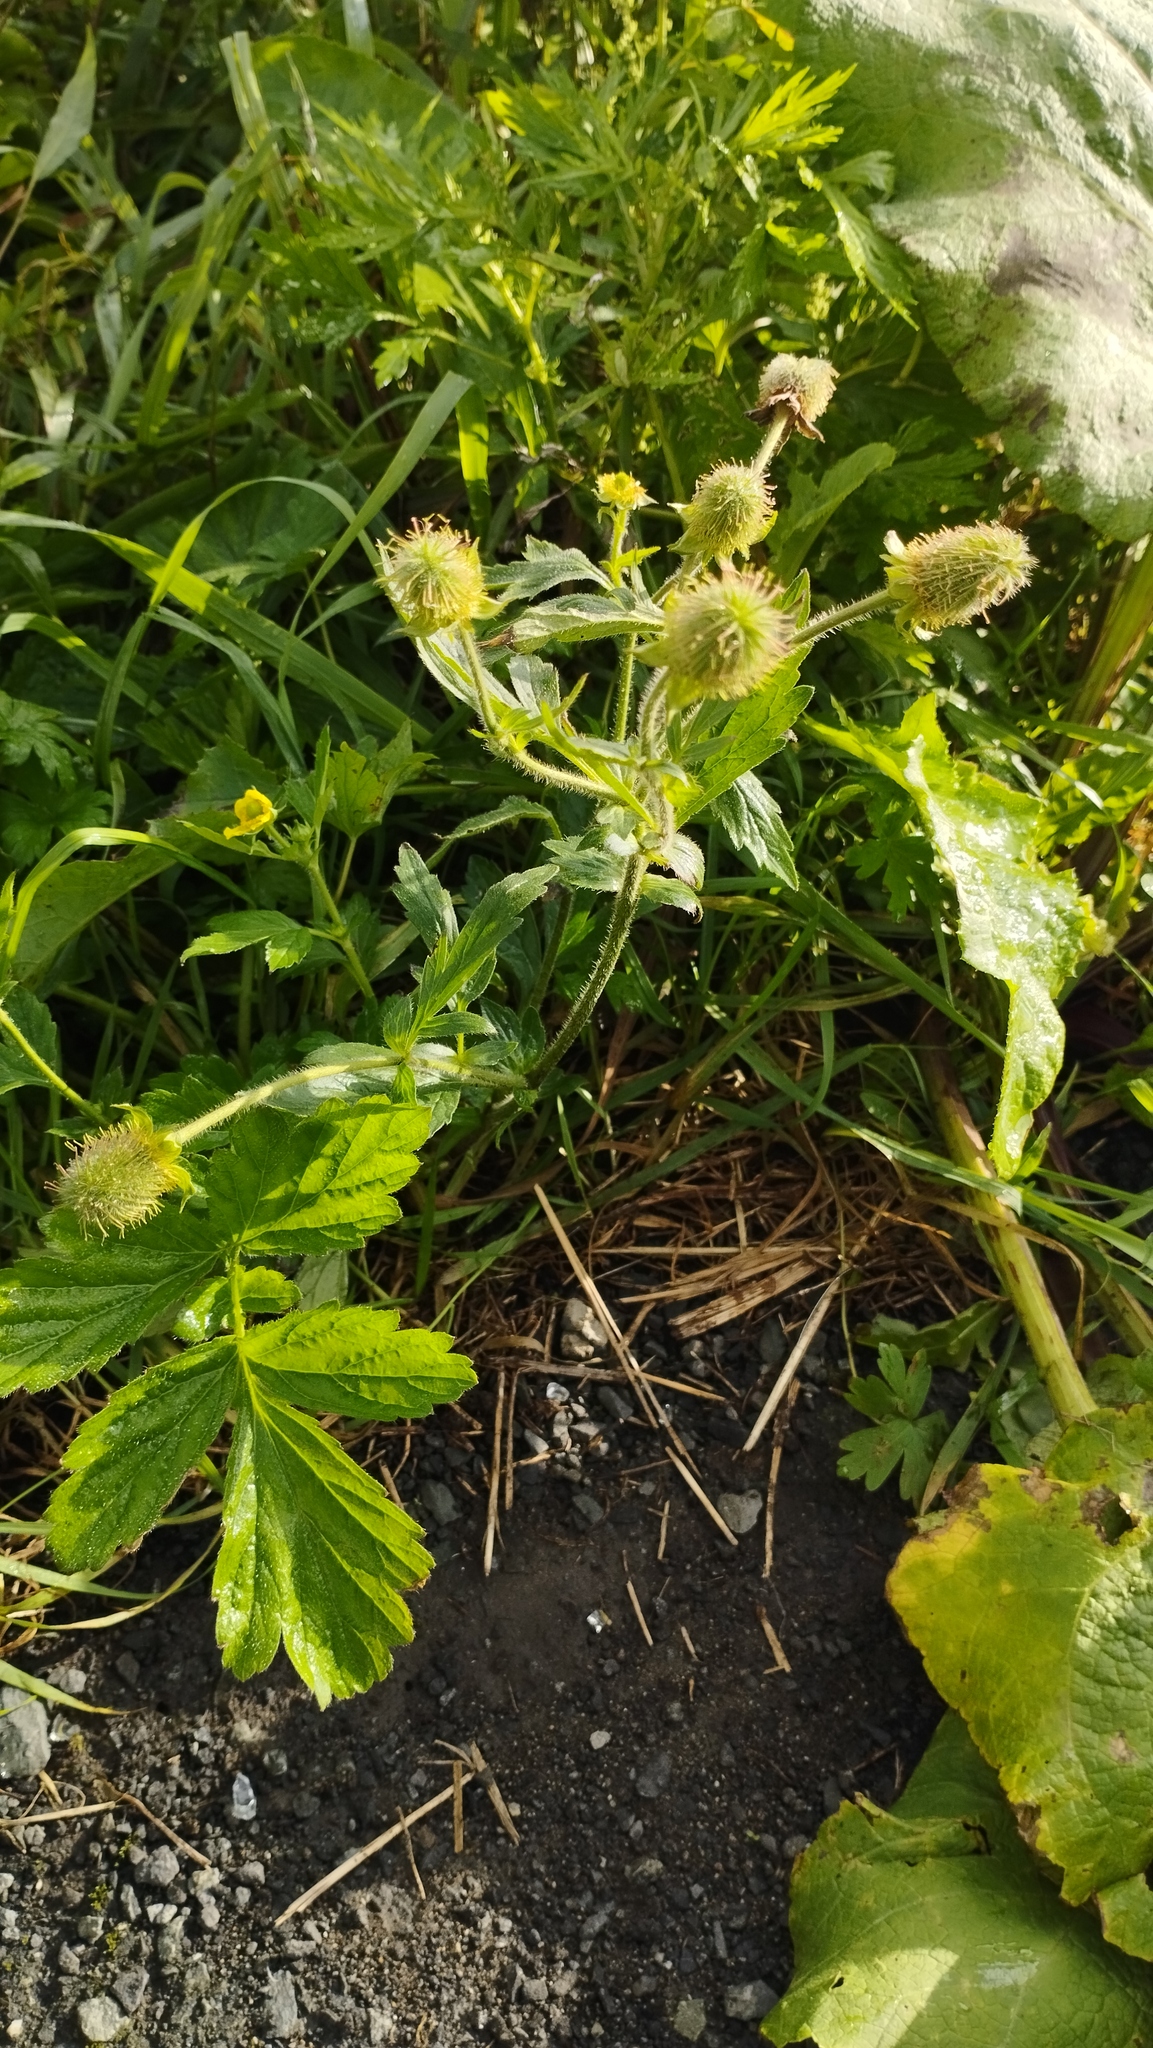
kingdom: Plantae
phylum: Tracheophyta
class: Magnoliopsida
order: Rosales
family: Rosaceae
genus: Geum
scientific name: Geum aleppicum
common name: Yellow avens
